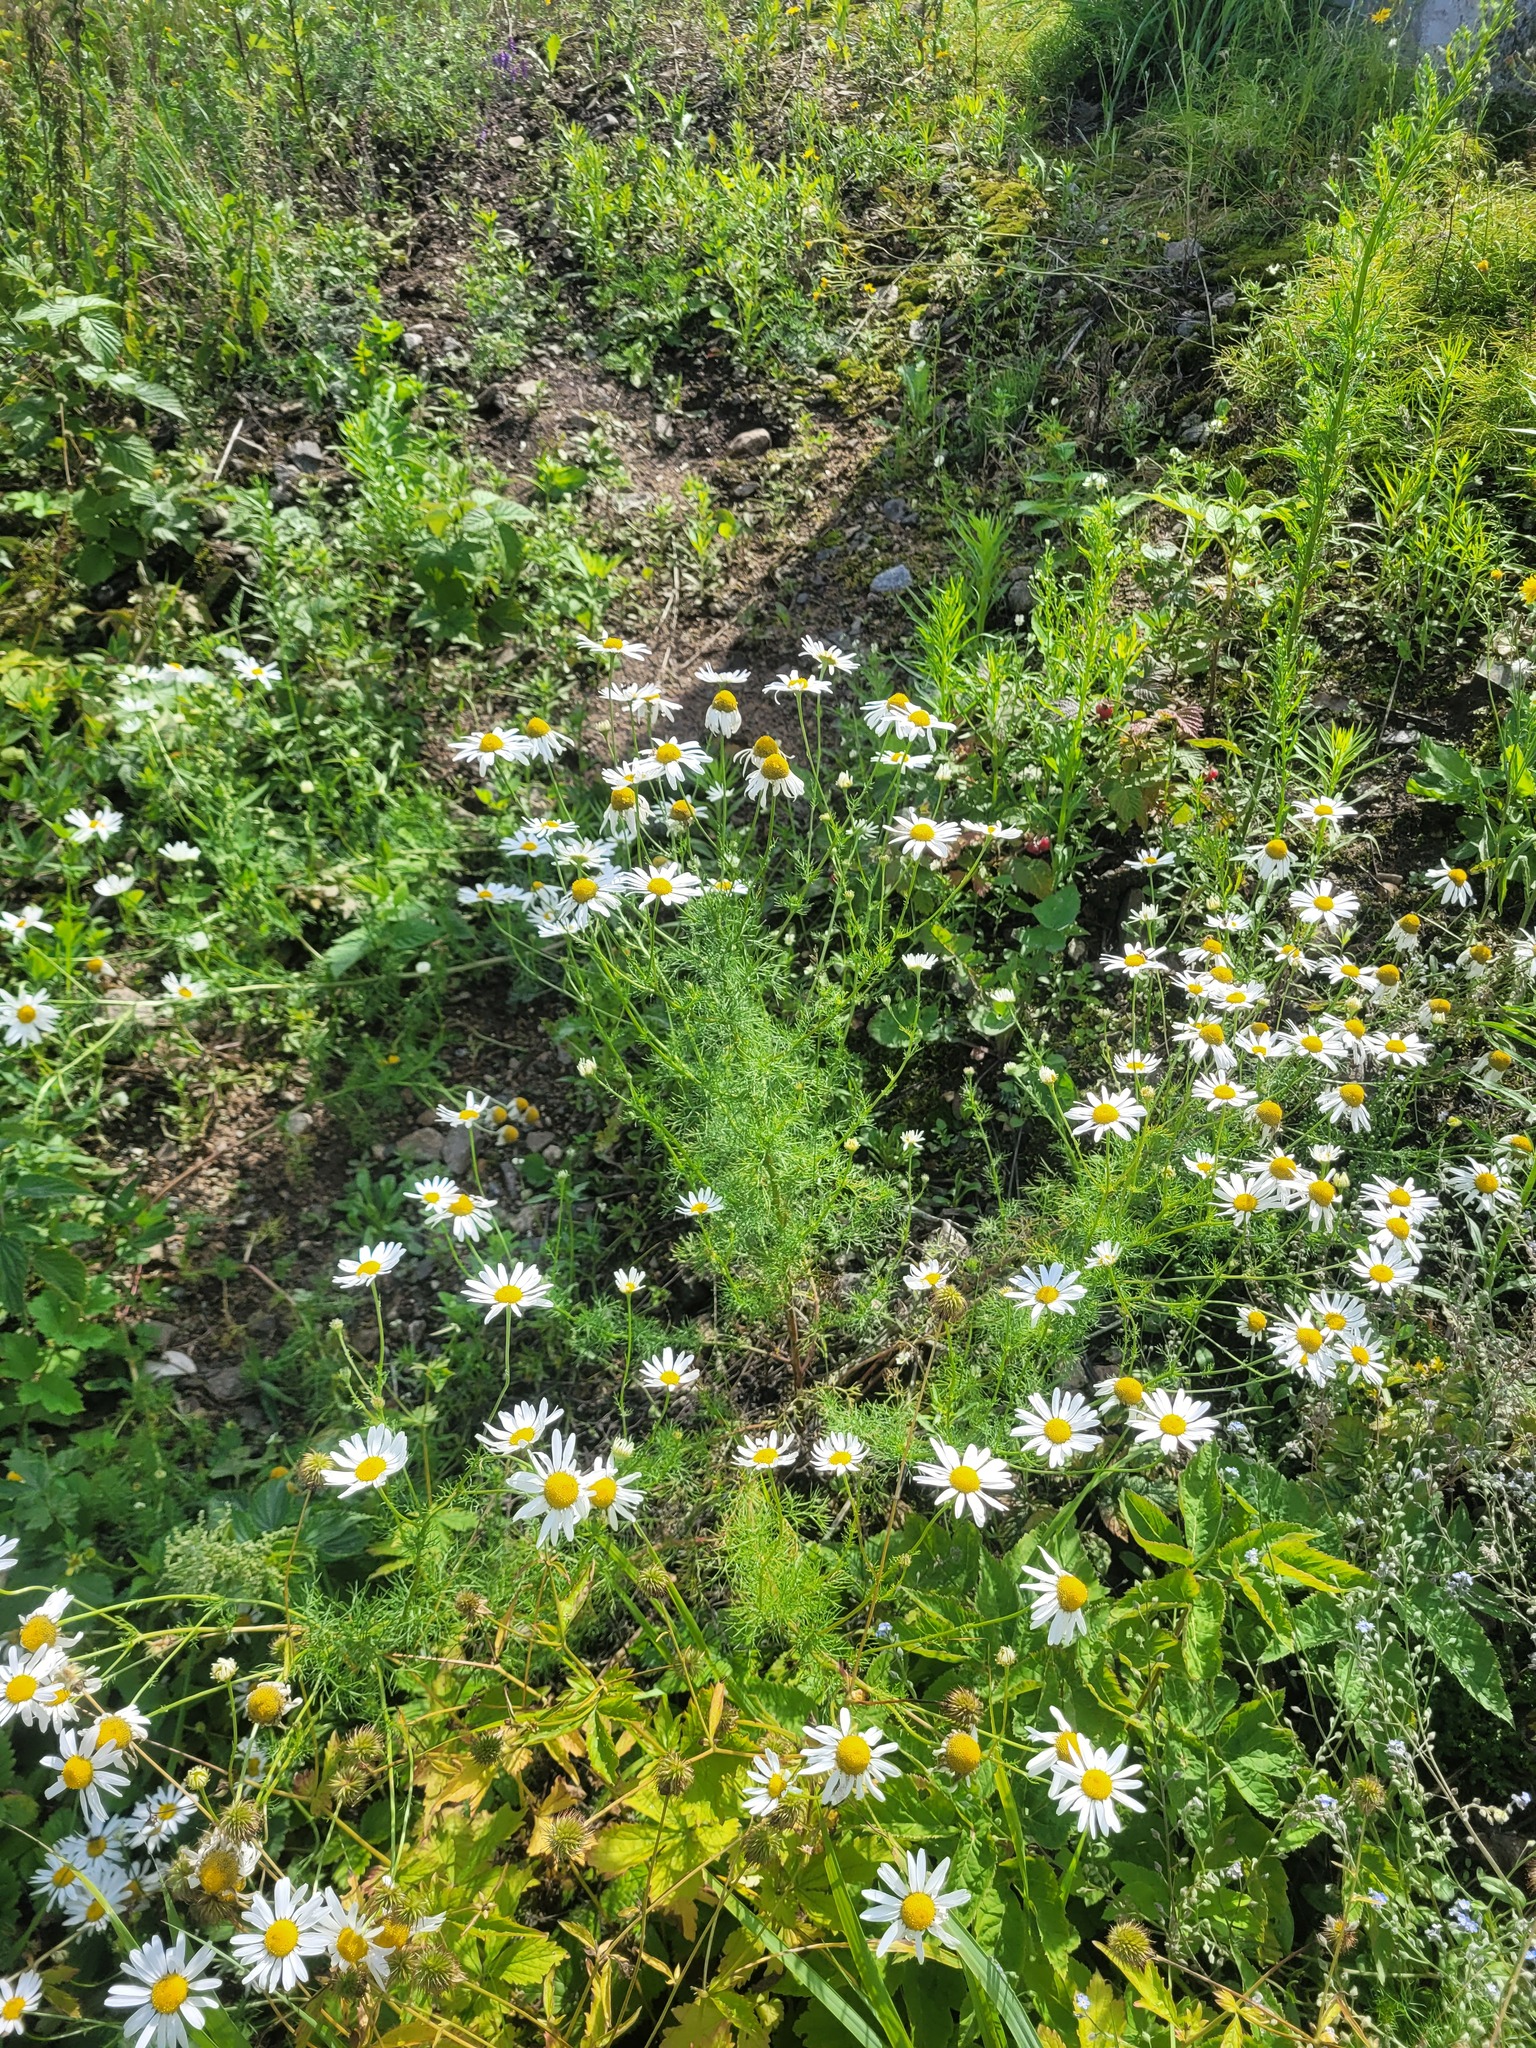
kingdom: Plantae
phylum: Tracheophyta
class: Magnoliopsida
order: Asterales
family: Asteraceae
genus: Tripleurospermum
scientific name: Tripleurospermum inodorum
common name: Scentless mayweed
